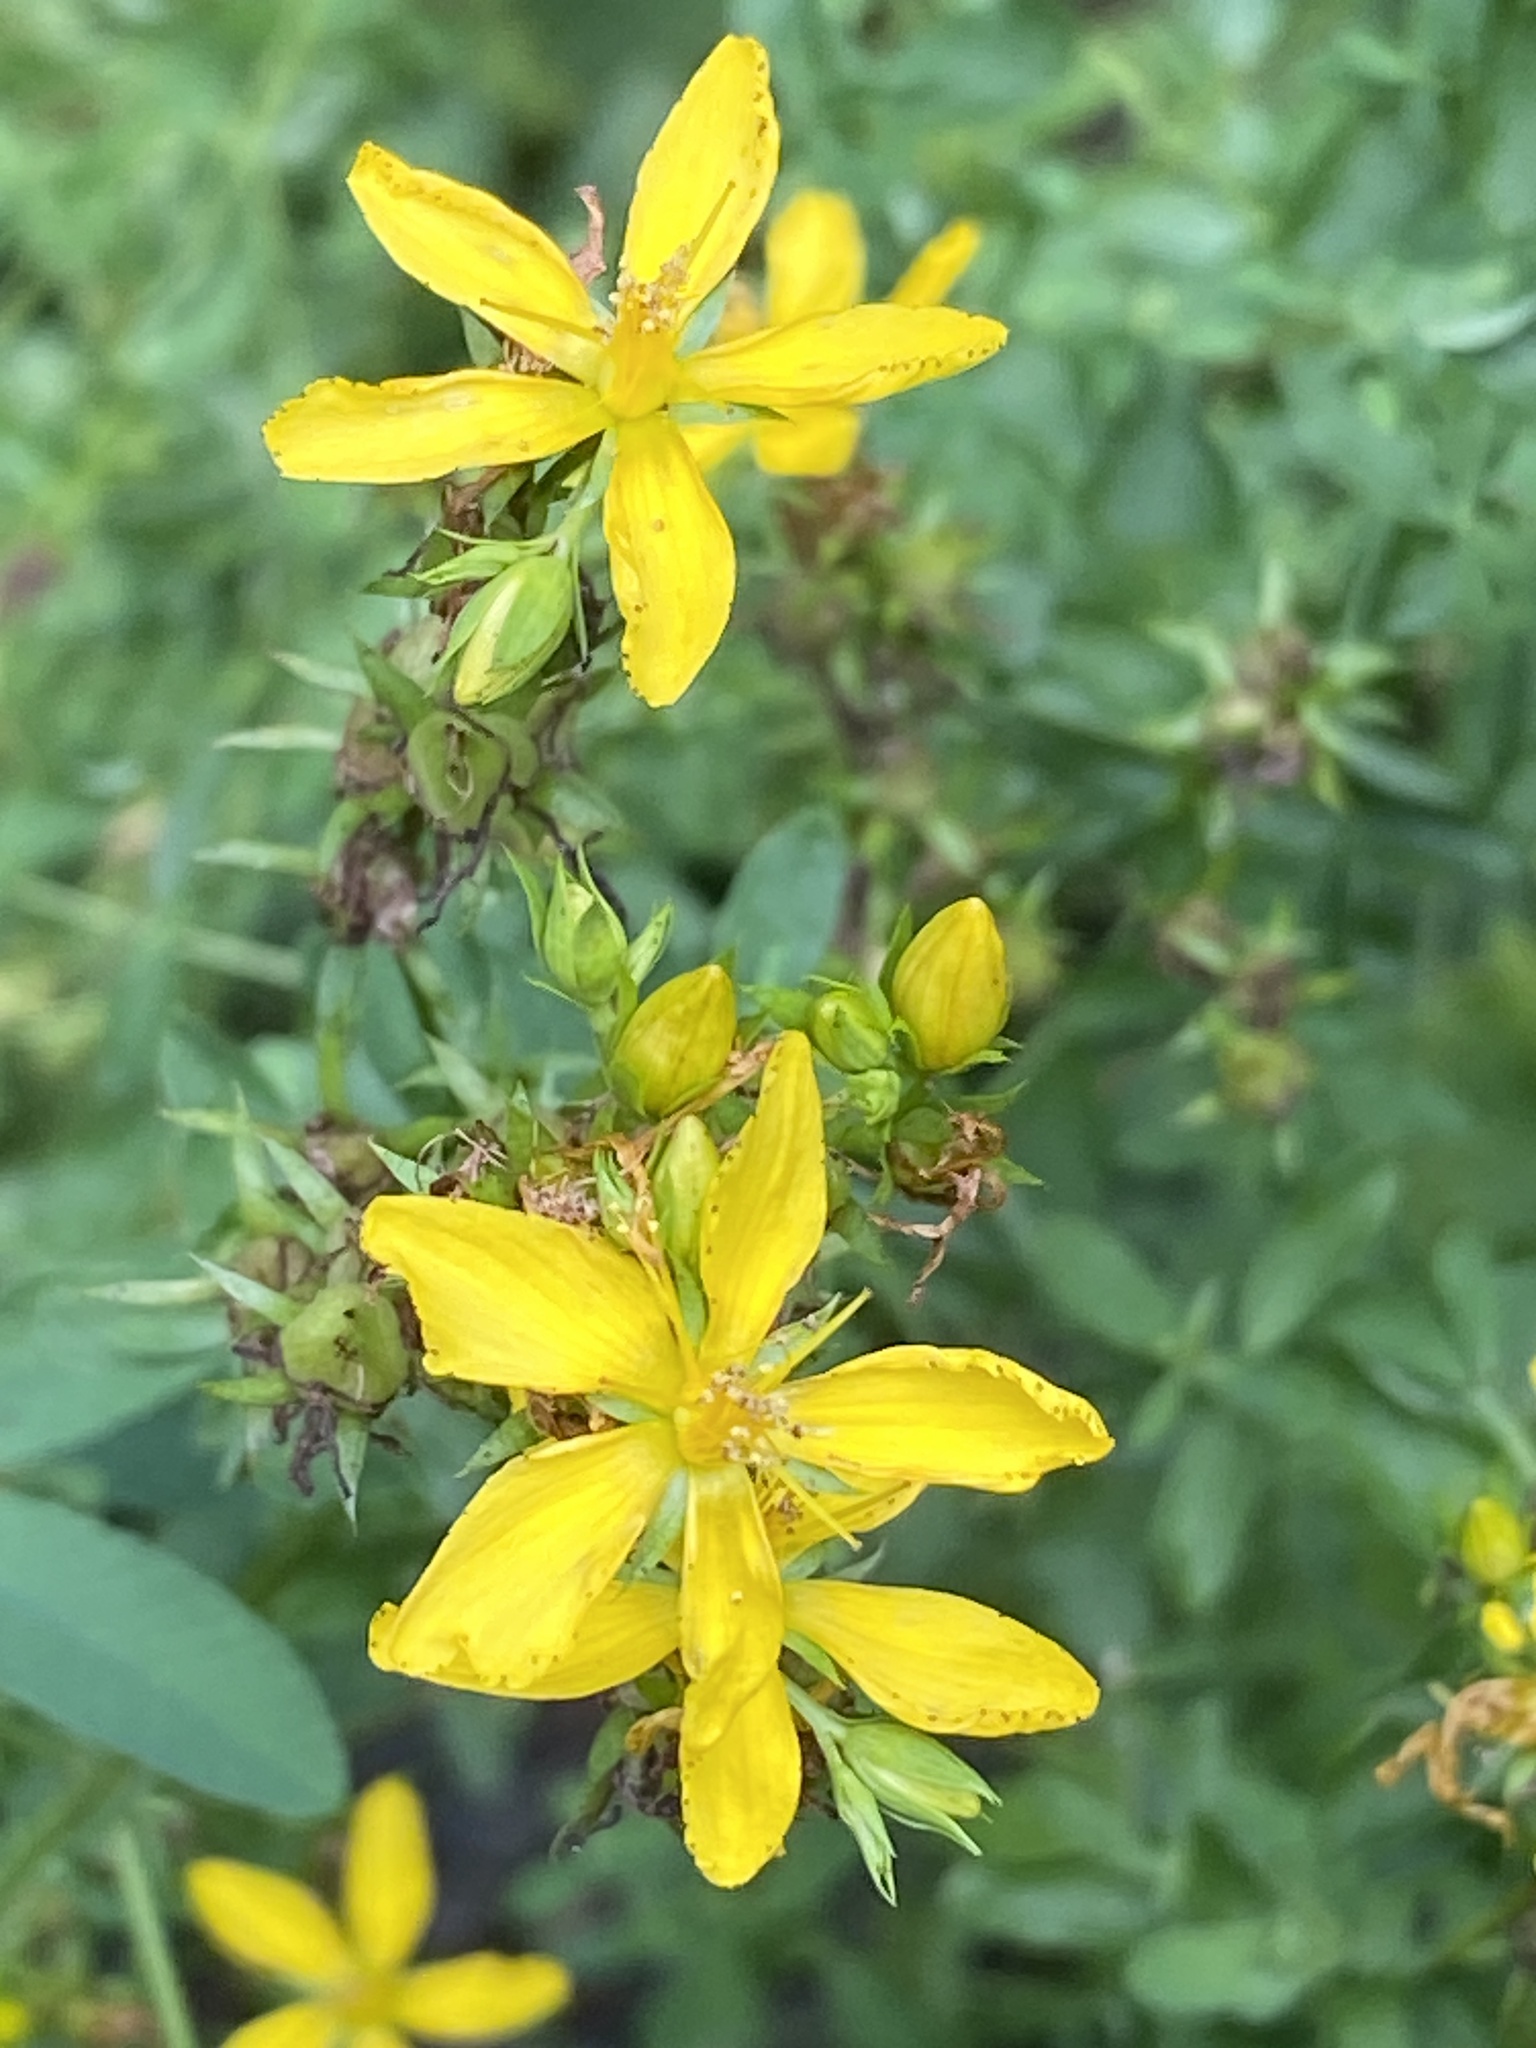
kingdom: Plantae
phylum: Tracheophyta
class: Magnoliopsida
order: Malpighiales
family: Hypericaceae
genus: Hypericum
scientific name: Hypericum perforatum
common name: Common st. johnswort
